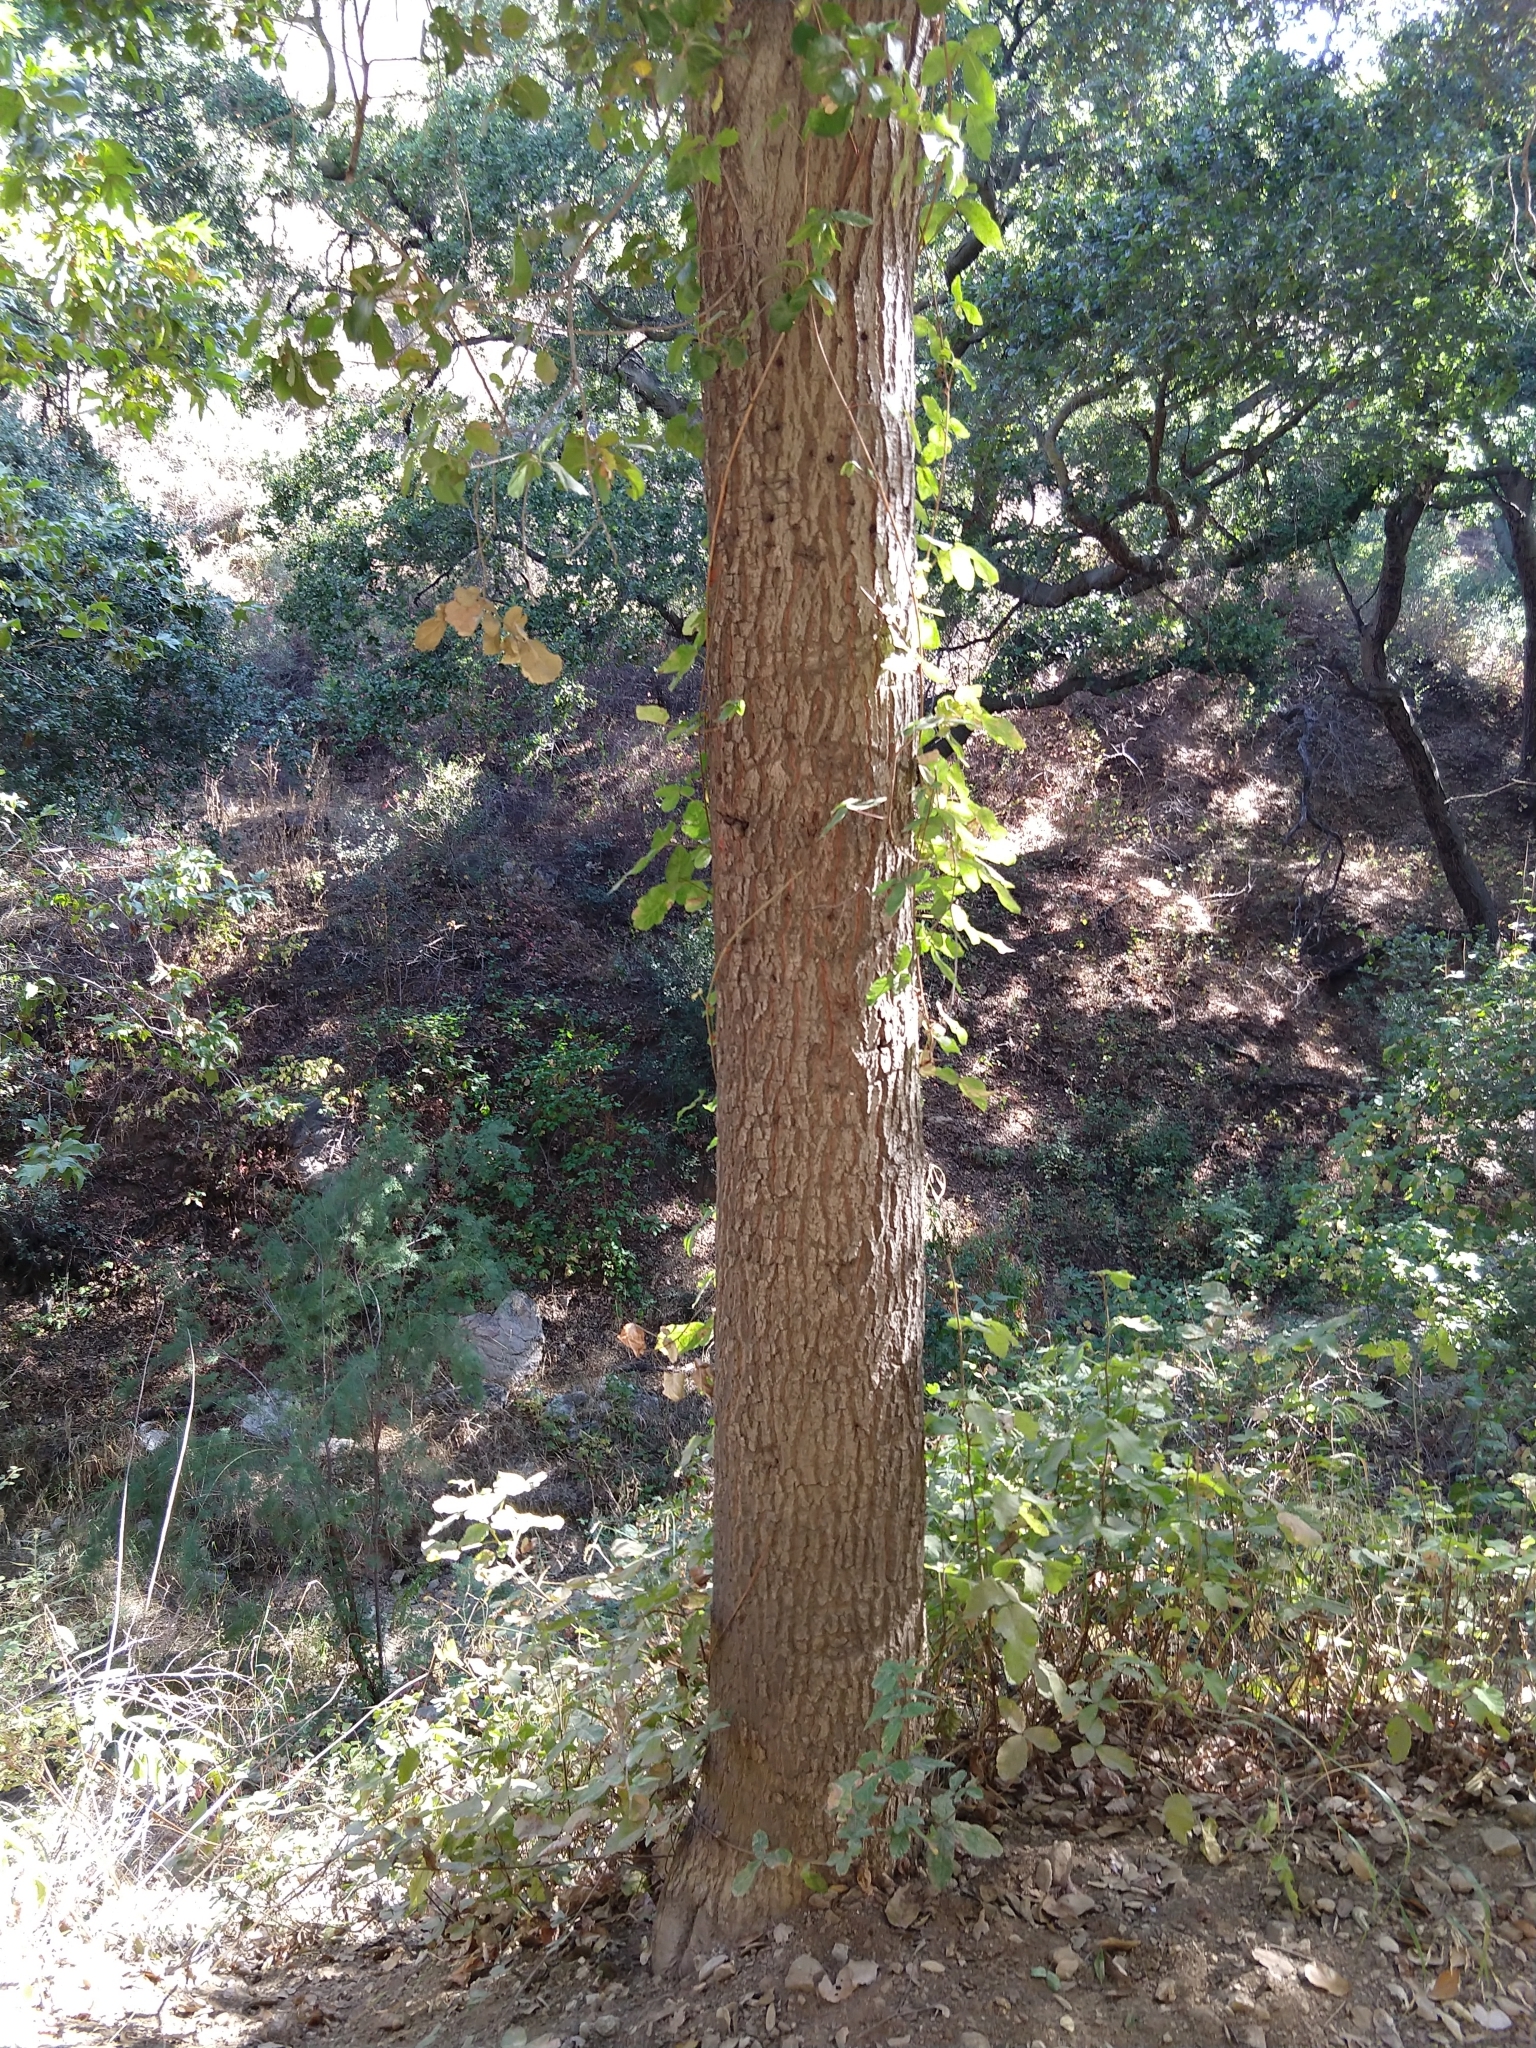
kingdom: Plantae
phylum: Tracheophyta
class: Magnoliopsida
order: Sapindales
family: Anacardiaceae
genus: Toxicodendron
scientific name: Toxicodendron diversilobum
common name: Pacific poison-oak
